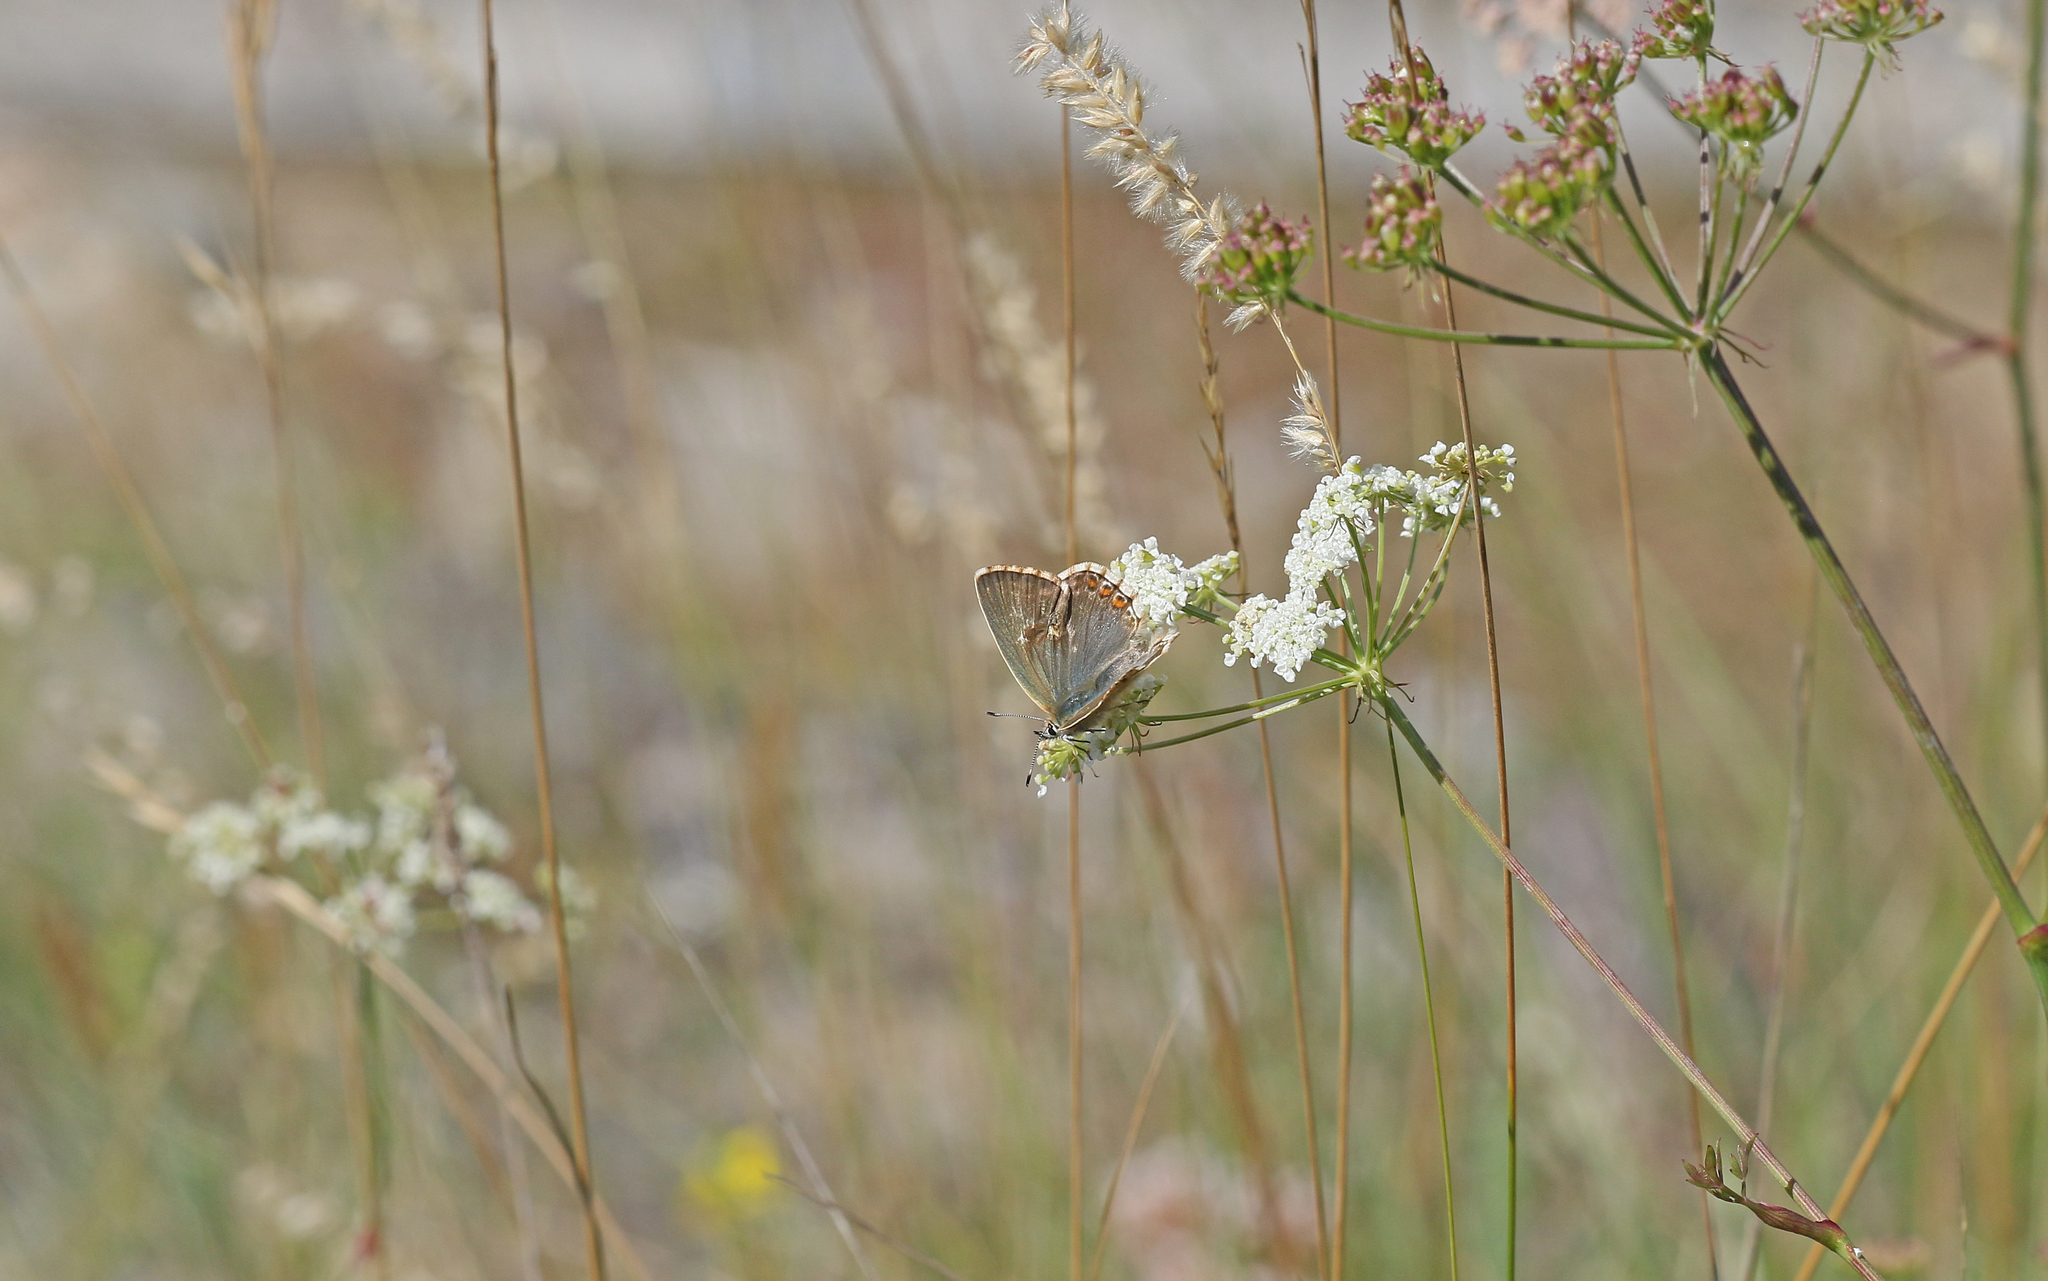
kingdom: Animalia
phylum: Arthropoda
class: Insecta
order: Lepidoptera
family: Lycaenidae
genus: Lysandra
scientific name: Lysandra bellargus
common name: Adonis blue
